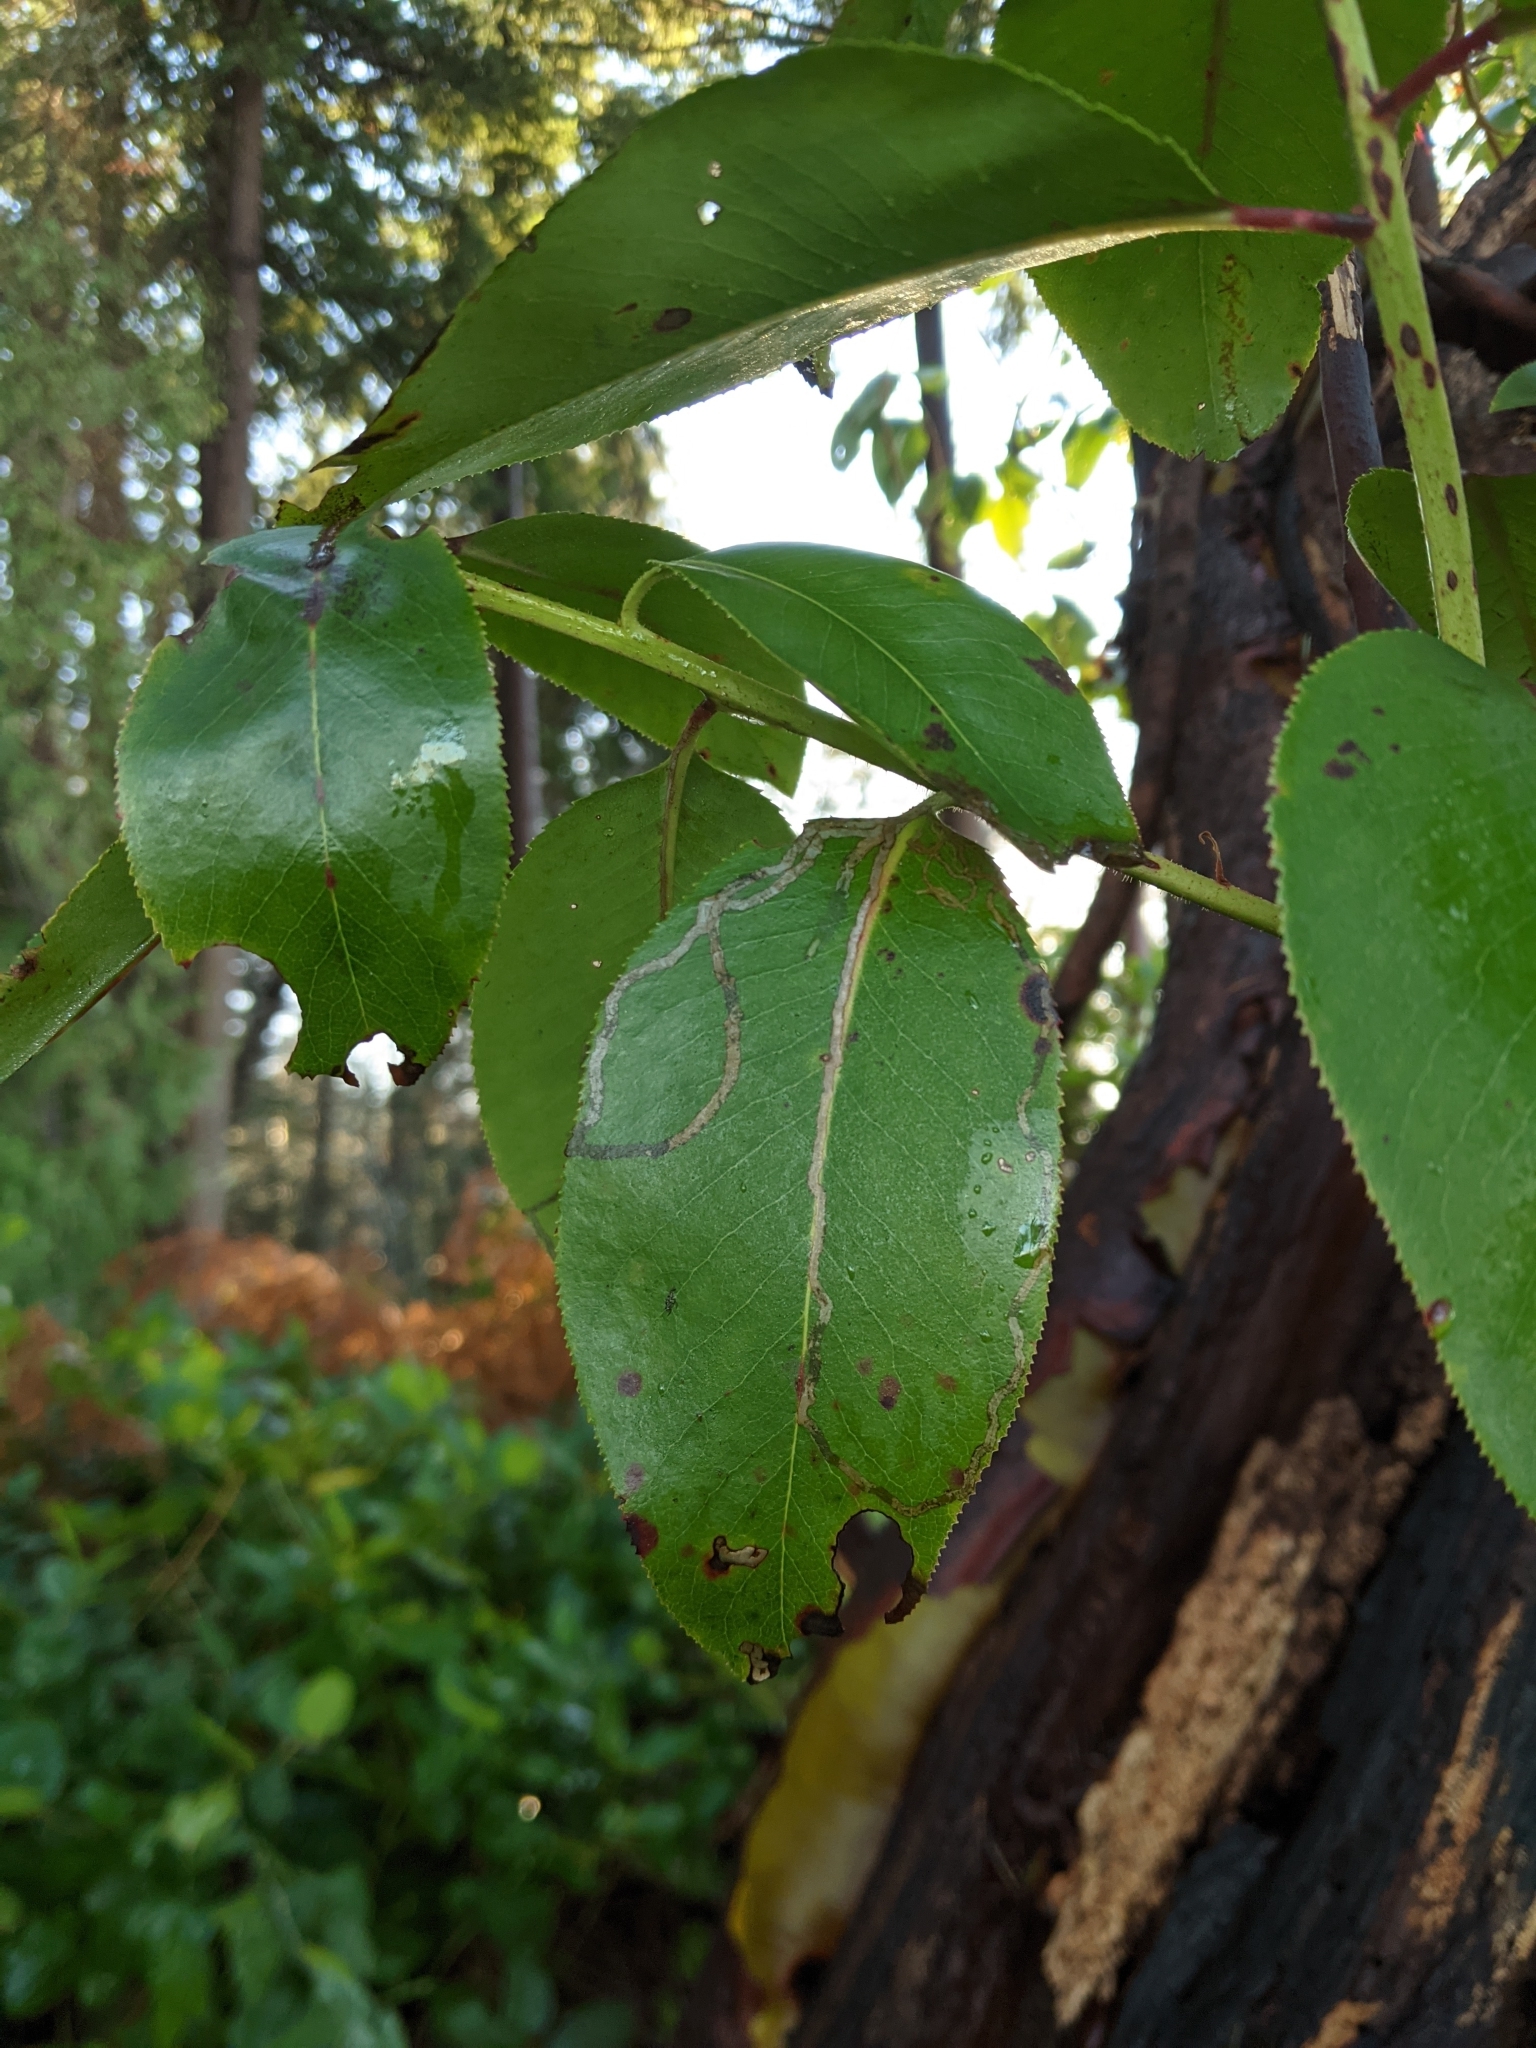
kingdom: Animalia
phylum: Arthropoda
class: Insecta
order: Lepidoptera
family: Gracillariidae
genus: Marmara
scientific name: Marmara arbutiella
